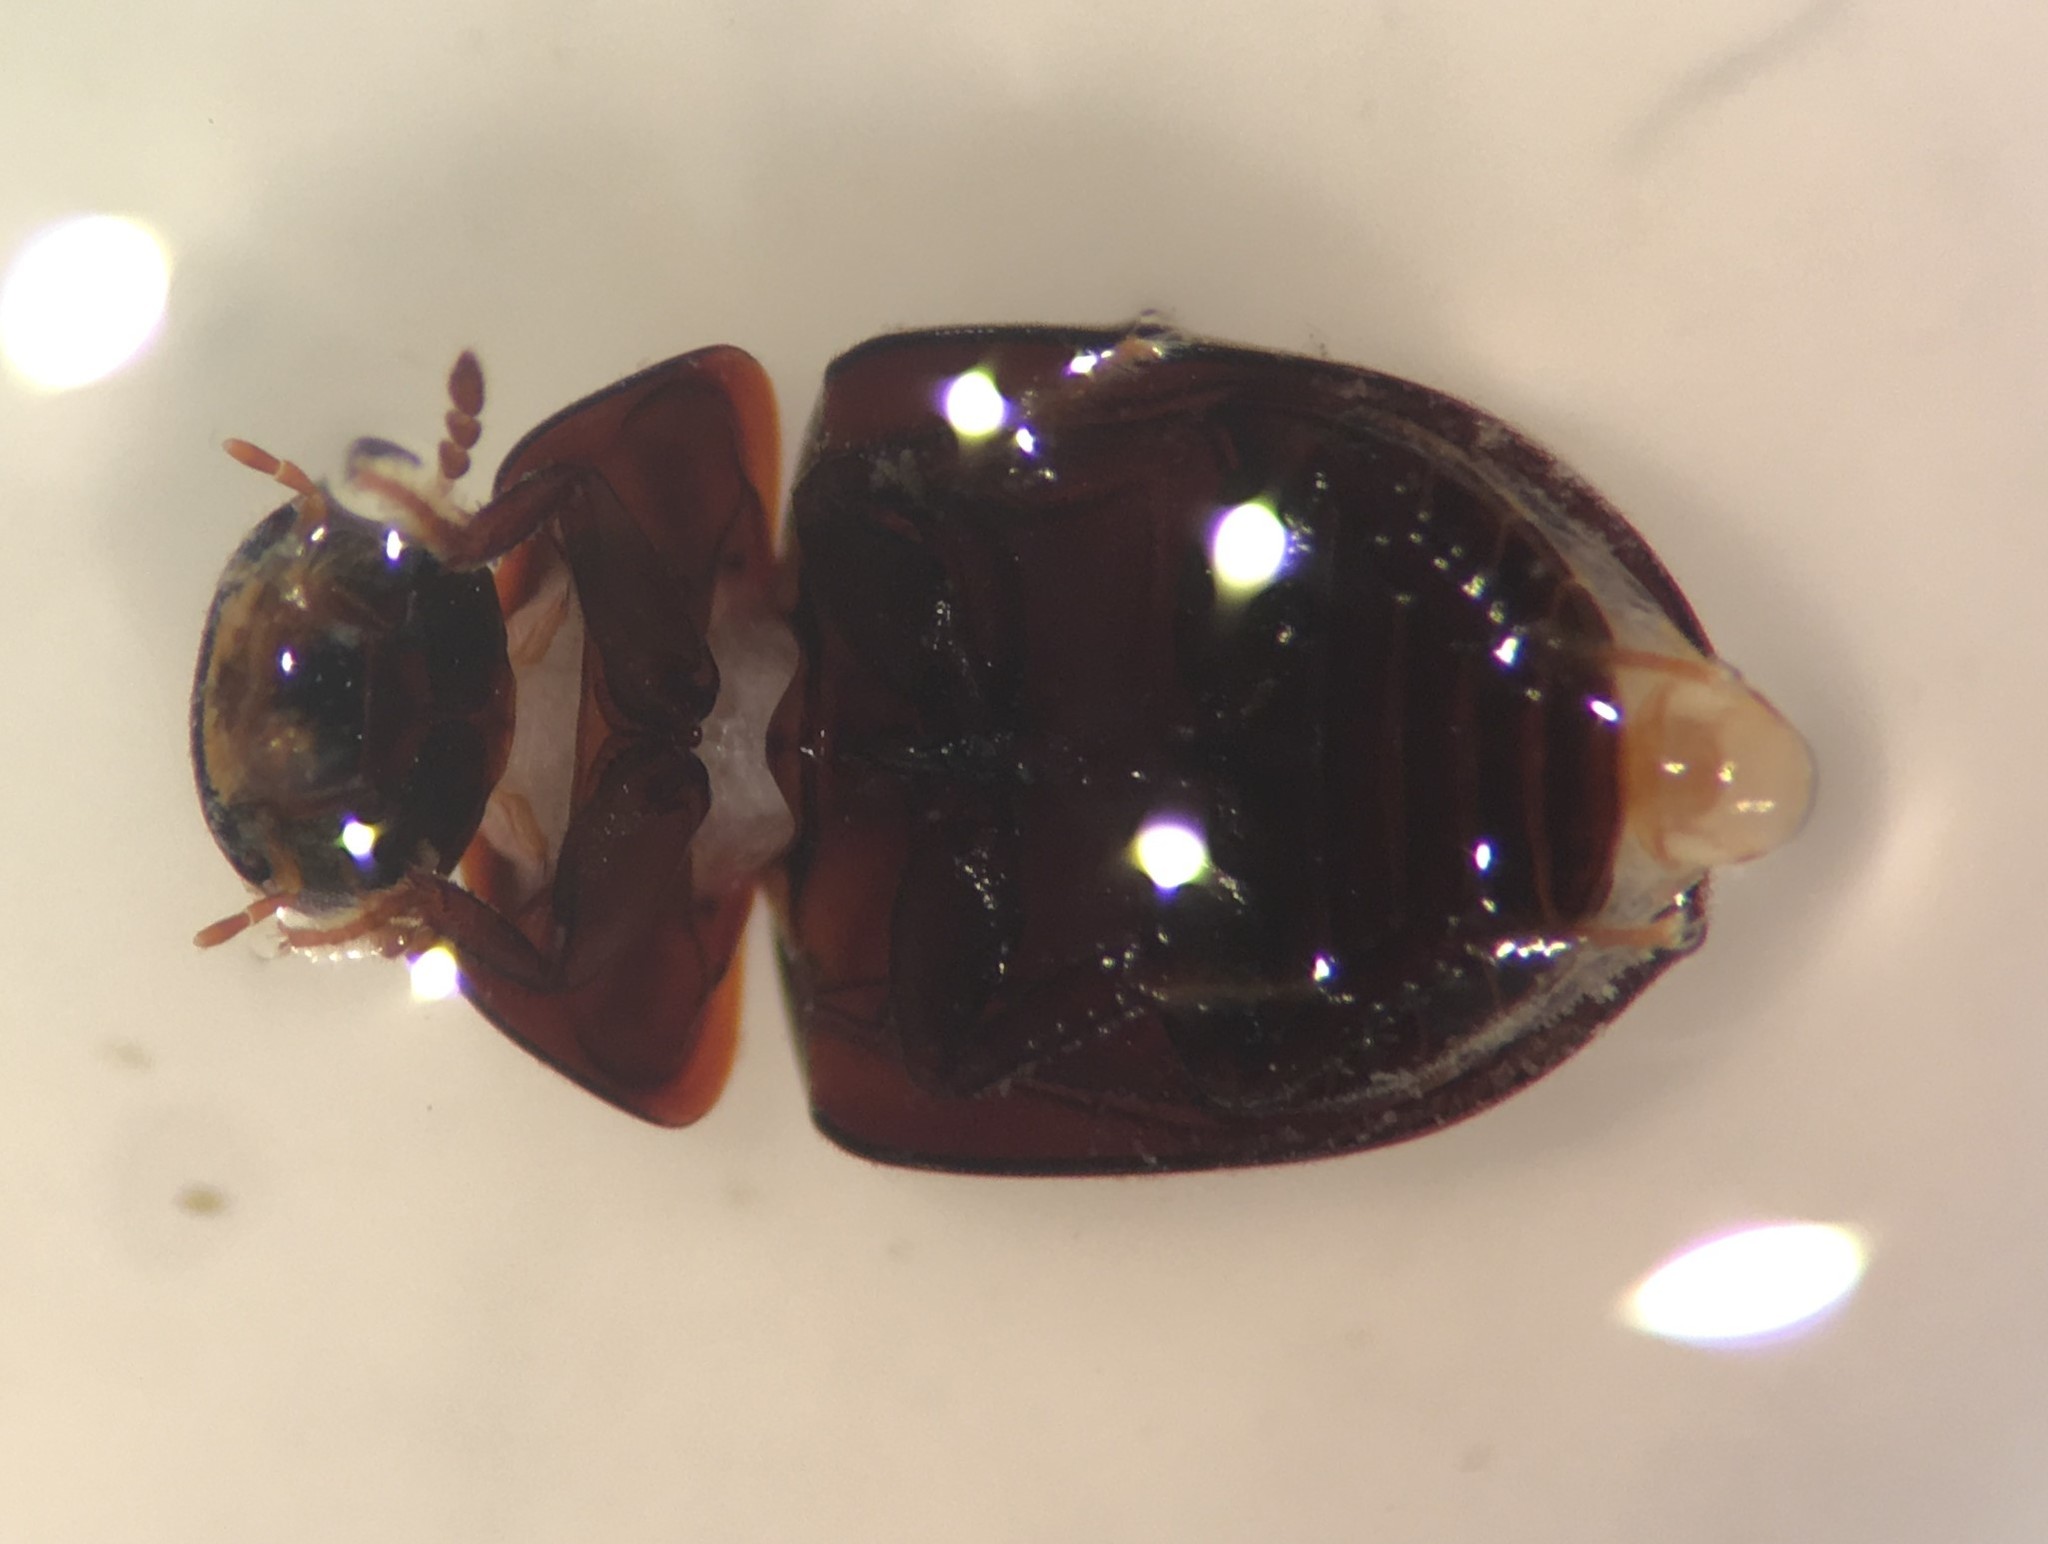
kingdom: Animalia
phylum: Arthropoda
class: Insecta
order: Coleoptera
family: Hydrophilidae
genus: Phaenonotum
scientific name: Phaenonotum exstriatum
